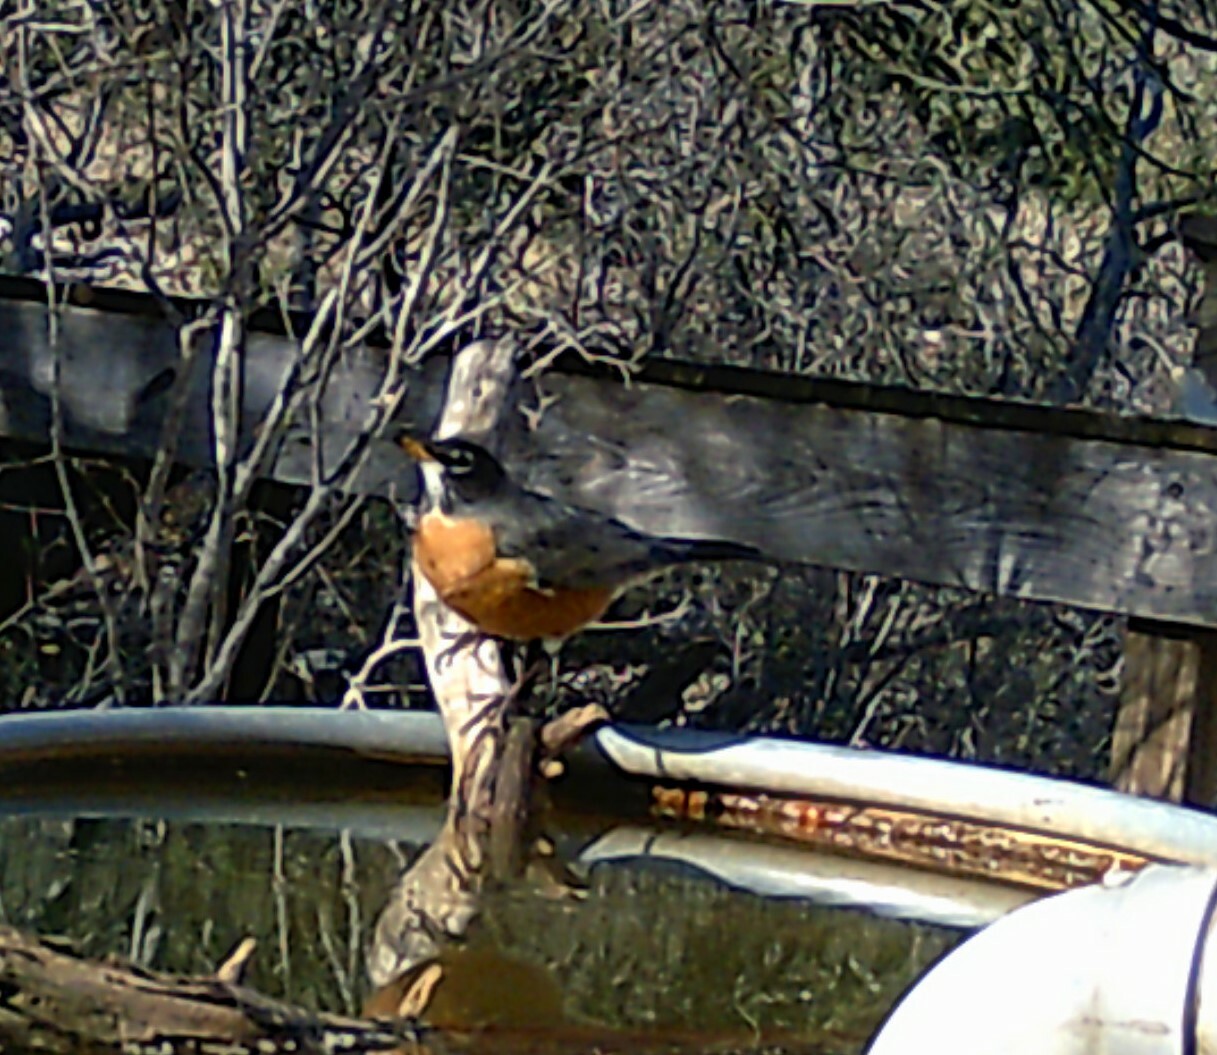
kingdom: Animalia
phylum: Chordata
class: Aves
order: Passeriformes
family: Turdidae
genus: Turdus
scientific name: Turdus migratorius
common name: American robin
